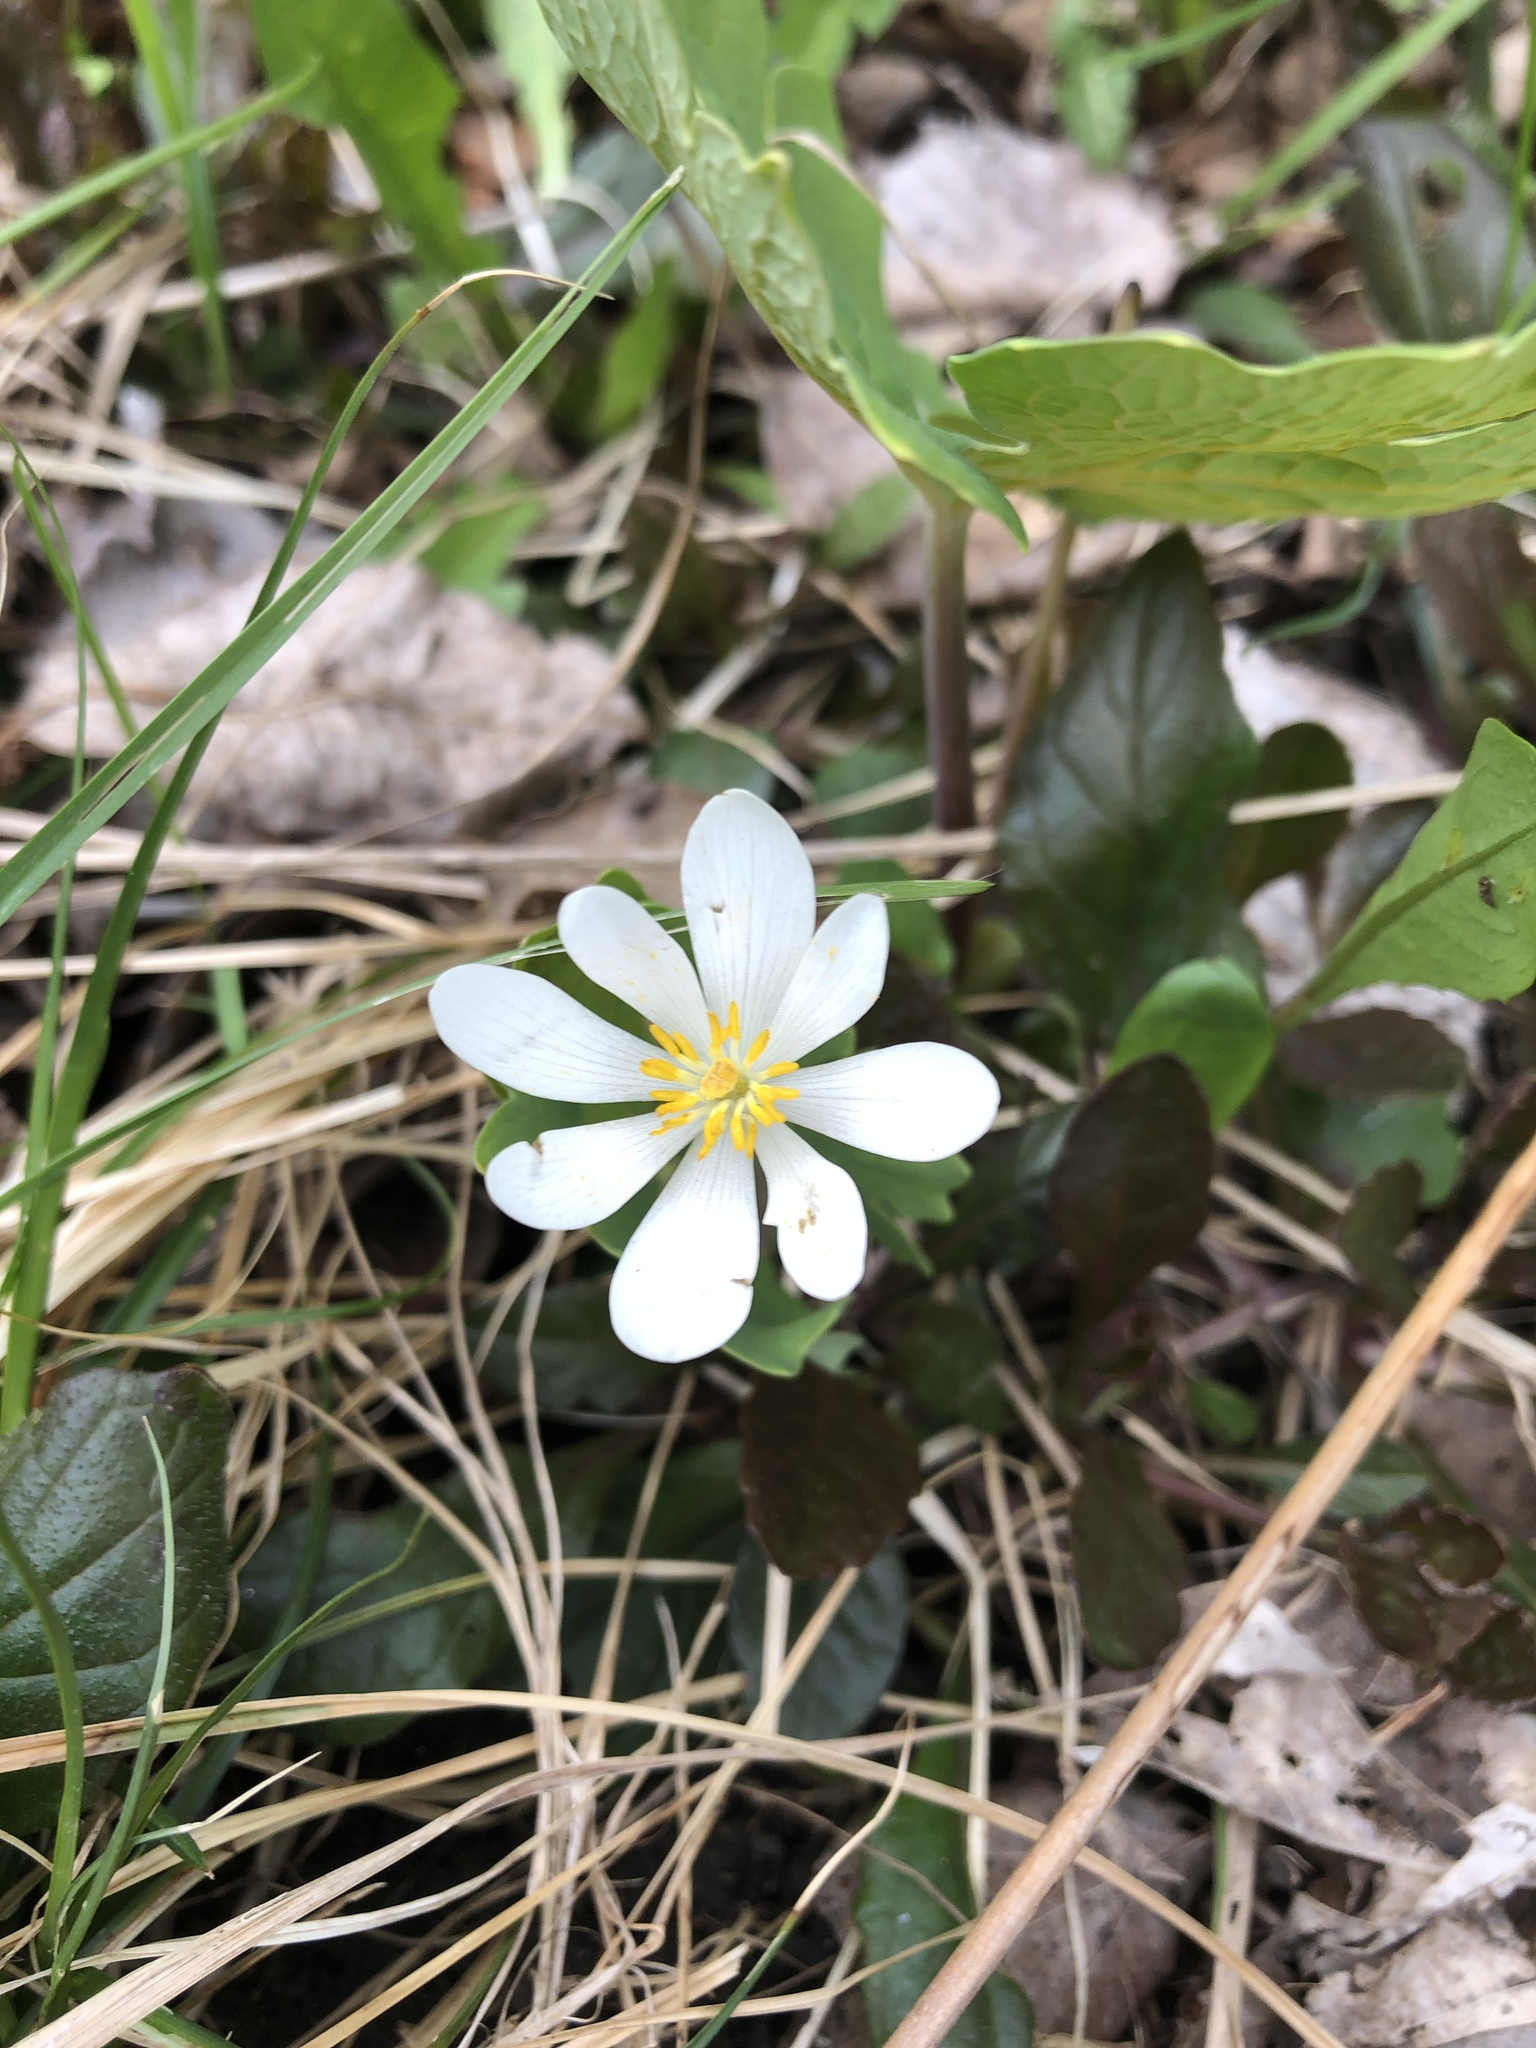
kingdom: Plantae
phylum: Tracheophyta
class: Magnoliopsida
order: Ranunculales
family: Papaveraceae
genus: Sanguinaria
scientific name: Sanguinaria canadensis
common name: Bloodroot
